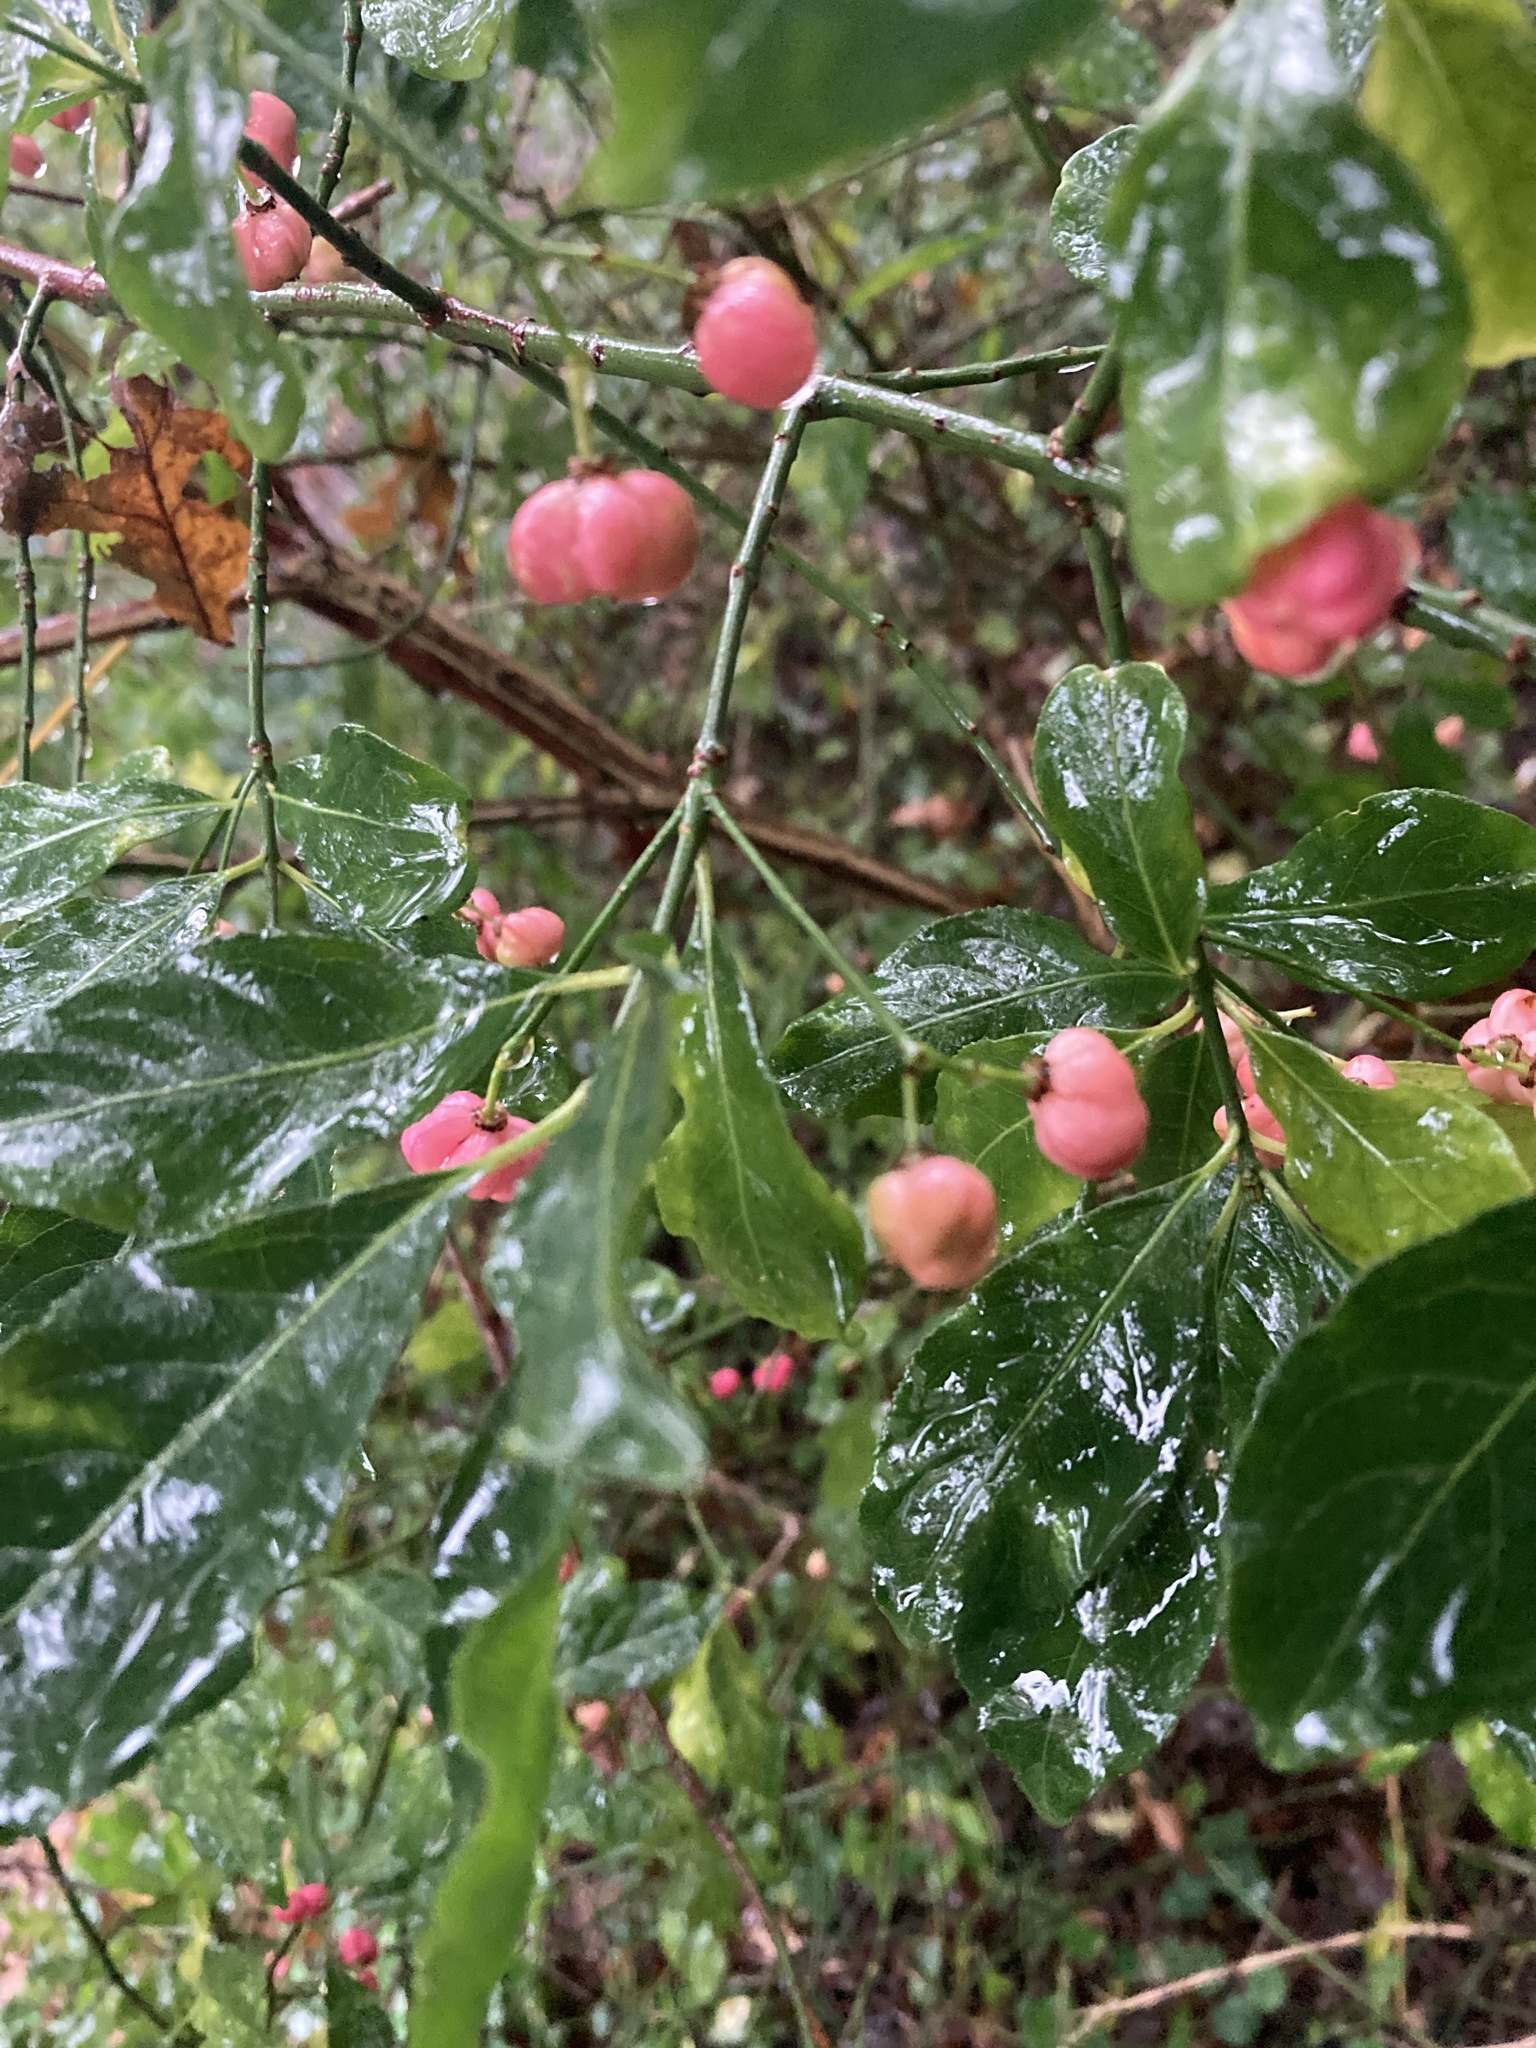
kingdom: Plantae
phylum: Tracheophyta
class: Magnoliopsida
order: Celastrales
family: Celastraceae
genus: Euonymus
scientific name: Euonymus europaeus
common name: Spindle
